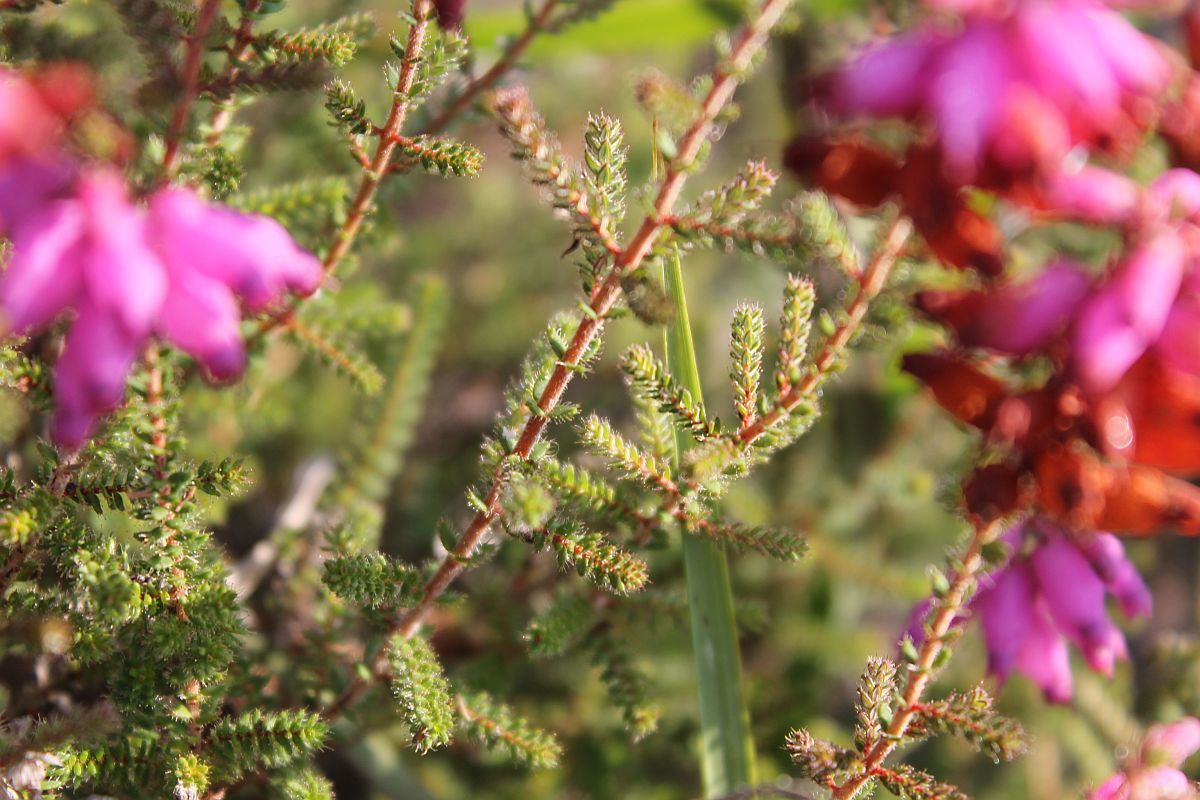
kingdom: Plantae
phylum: Tracheophyta
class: Magnoliopsida
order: Ericales
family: Ericaceae
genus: Erica
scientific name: Erica ciliaris
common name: Dorset heath
